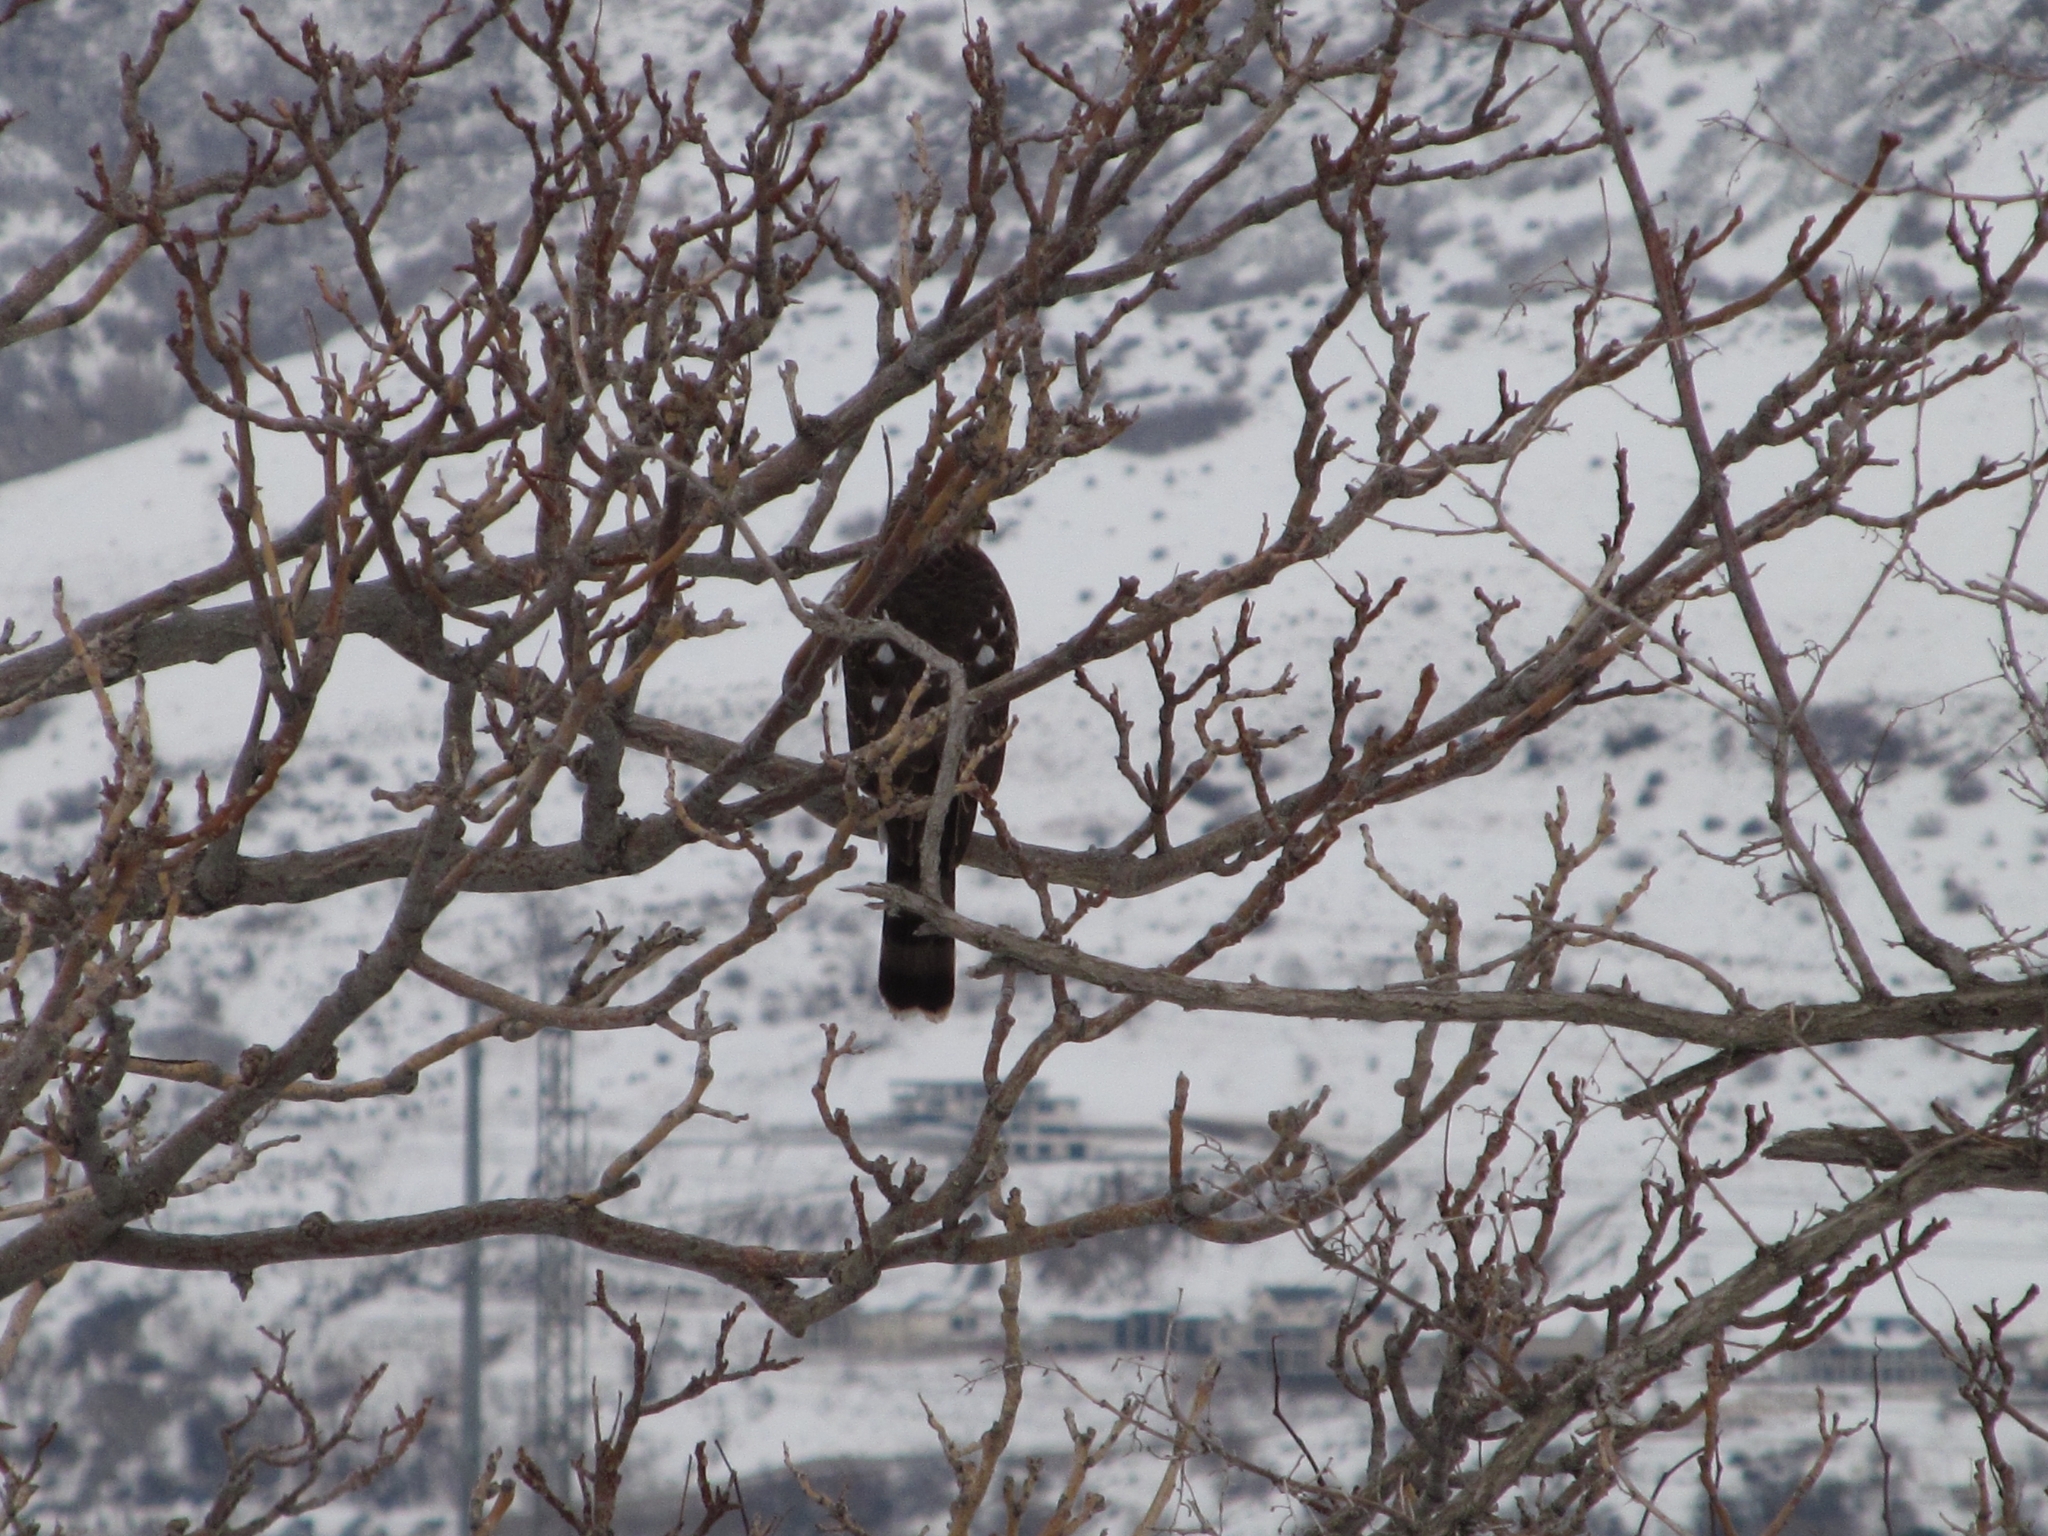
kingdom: Animalia
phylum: Chordata
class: Aves
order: Accipitriformes
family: Accipitridae
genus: Accipiter
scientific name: Accipiter cooperii
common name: Cooper's hawk
